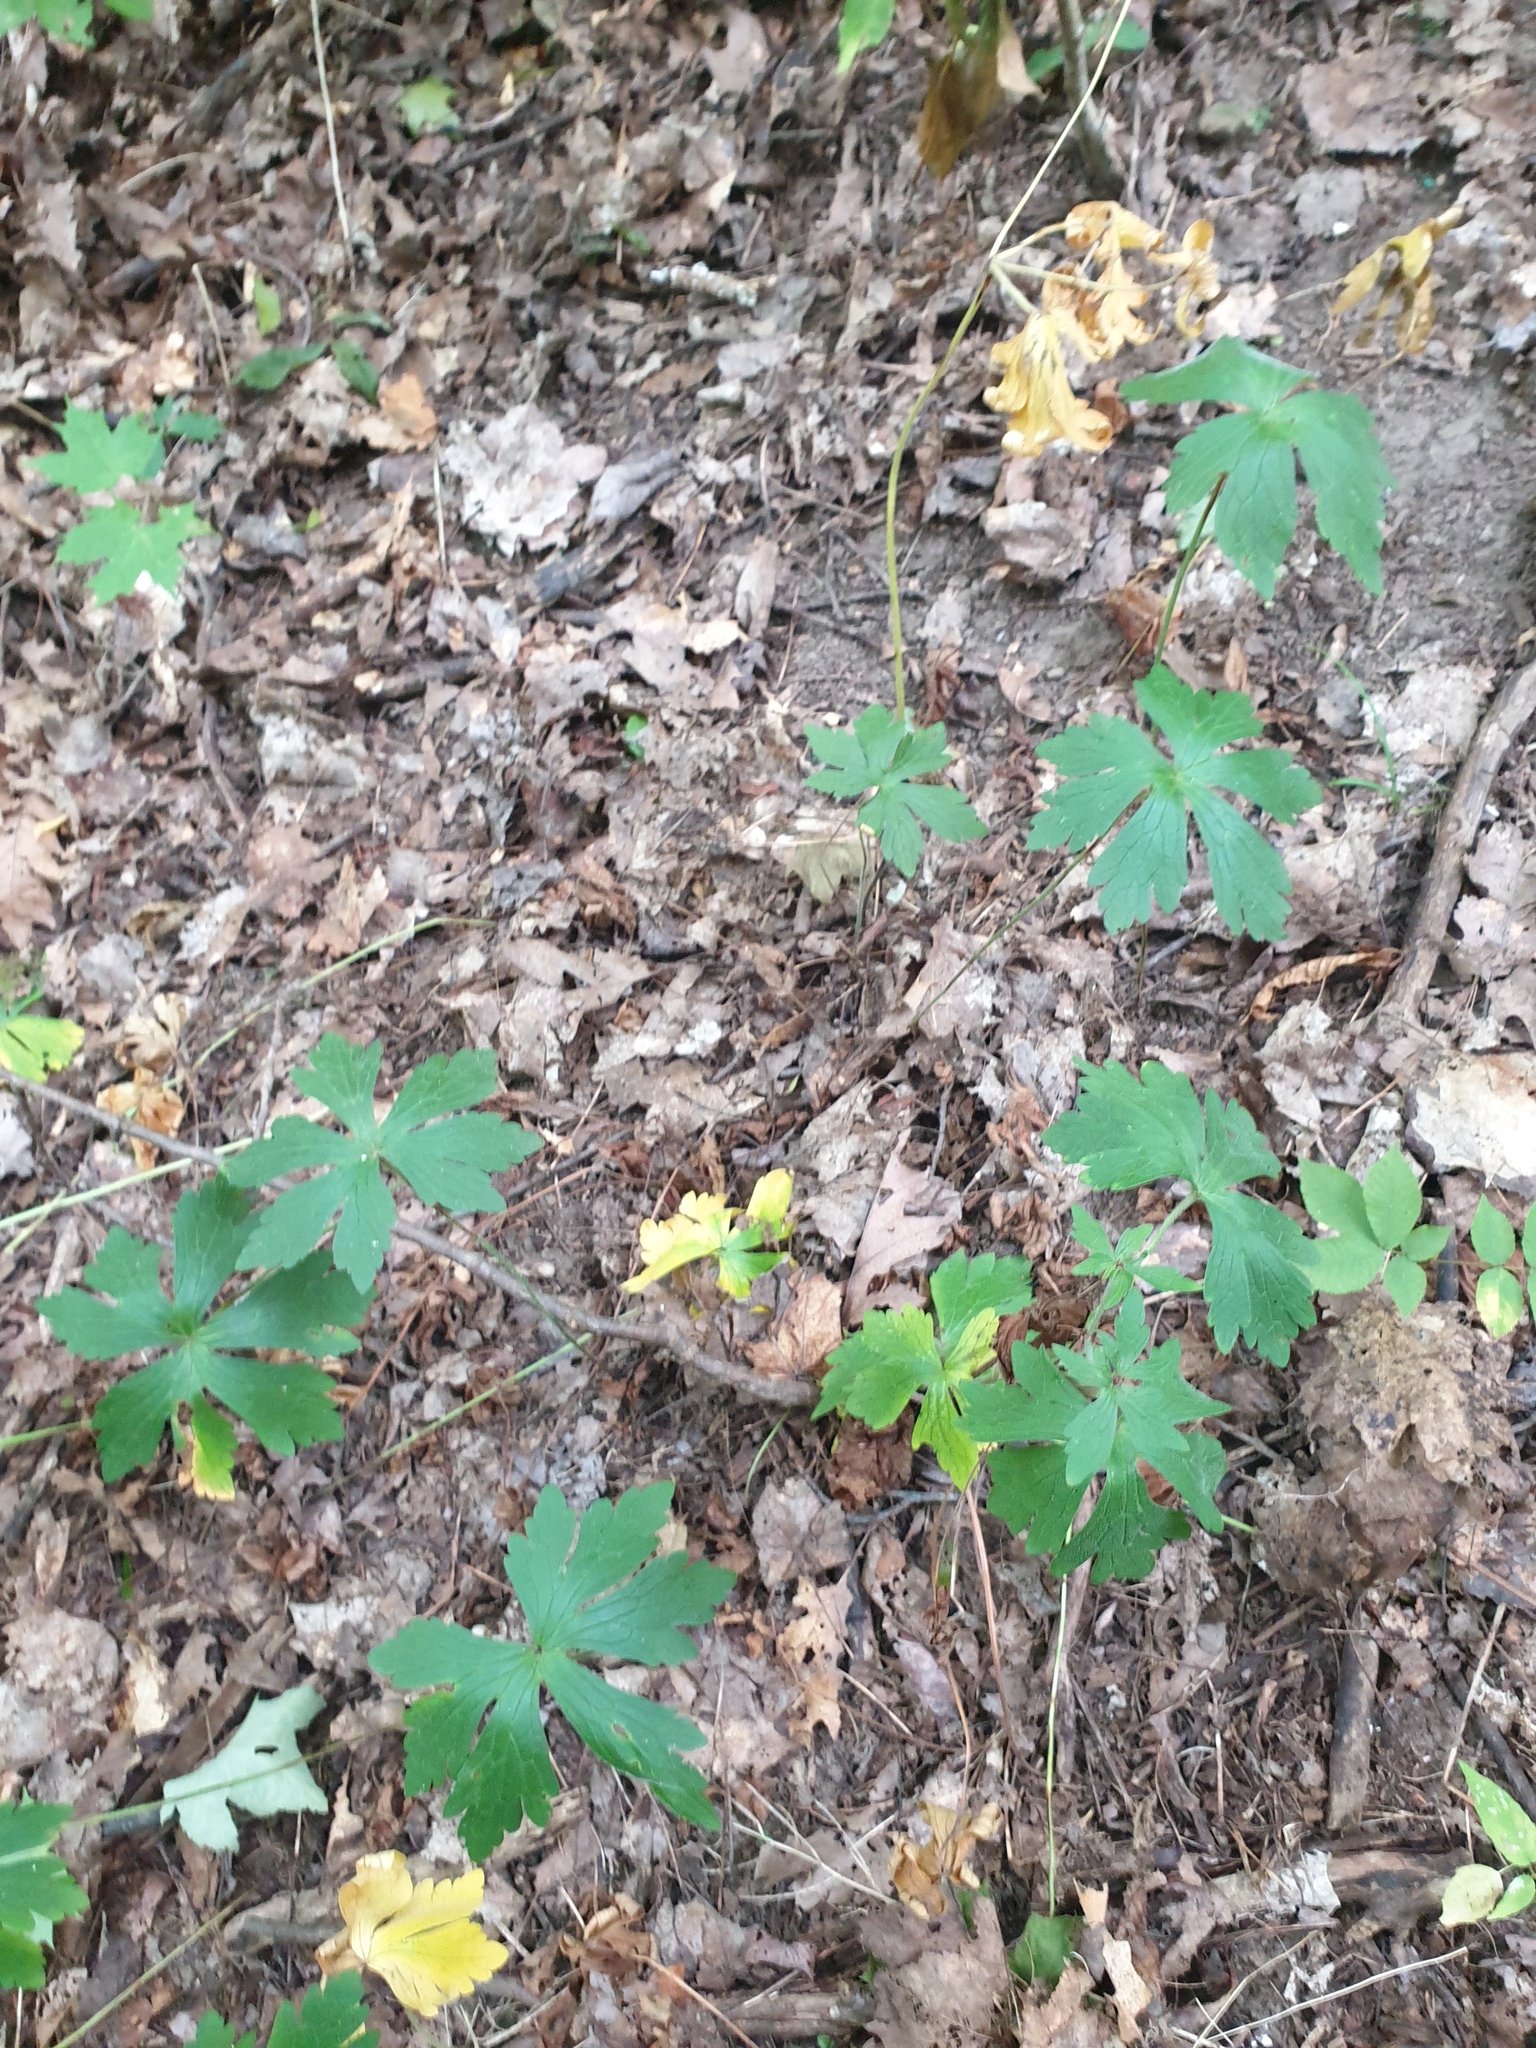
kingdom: Plantae
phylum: Tracheophyta
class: Magnoliopsida
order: Geraniales
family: Geraniaceae
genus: Geranium
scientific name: Geranium maculatum
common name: Spotted geranium
